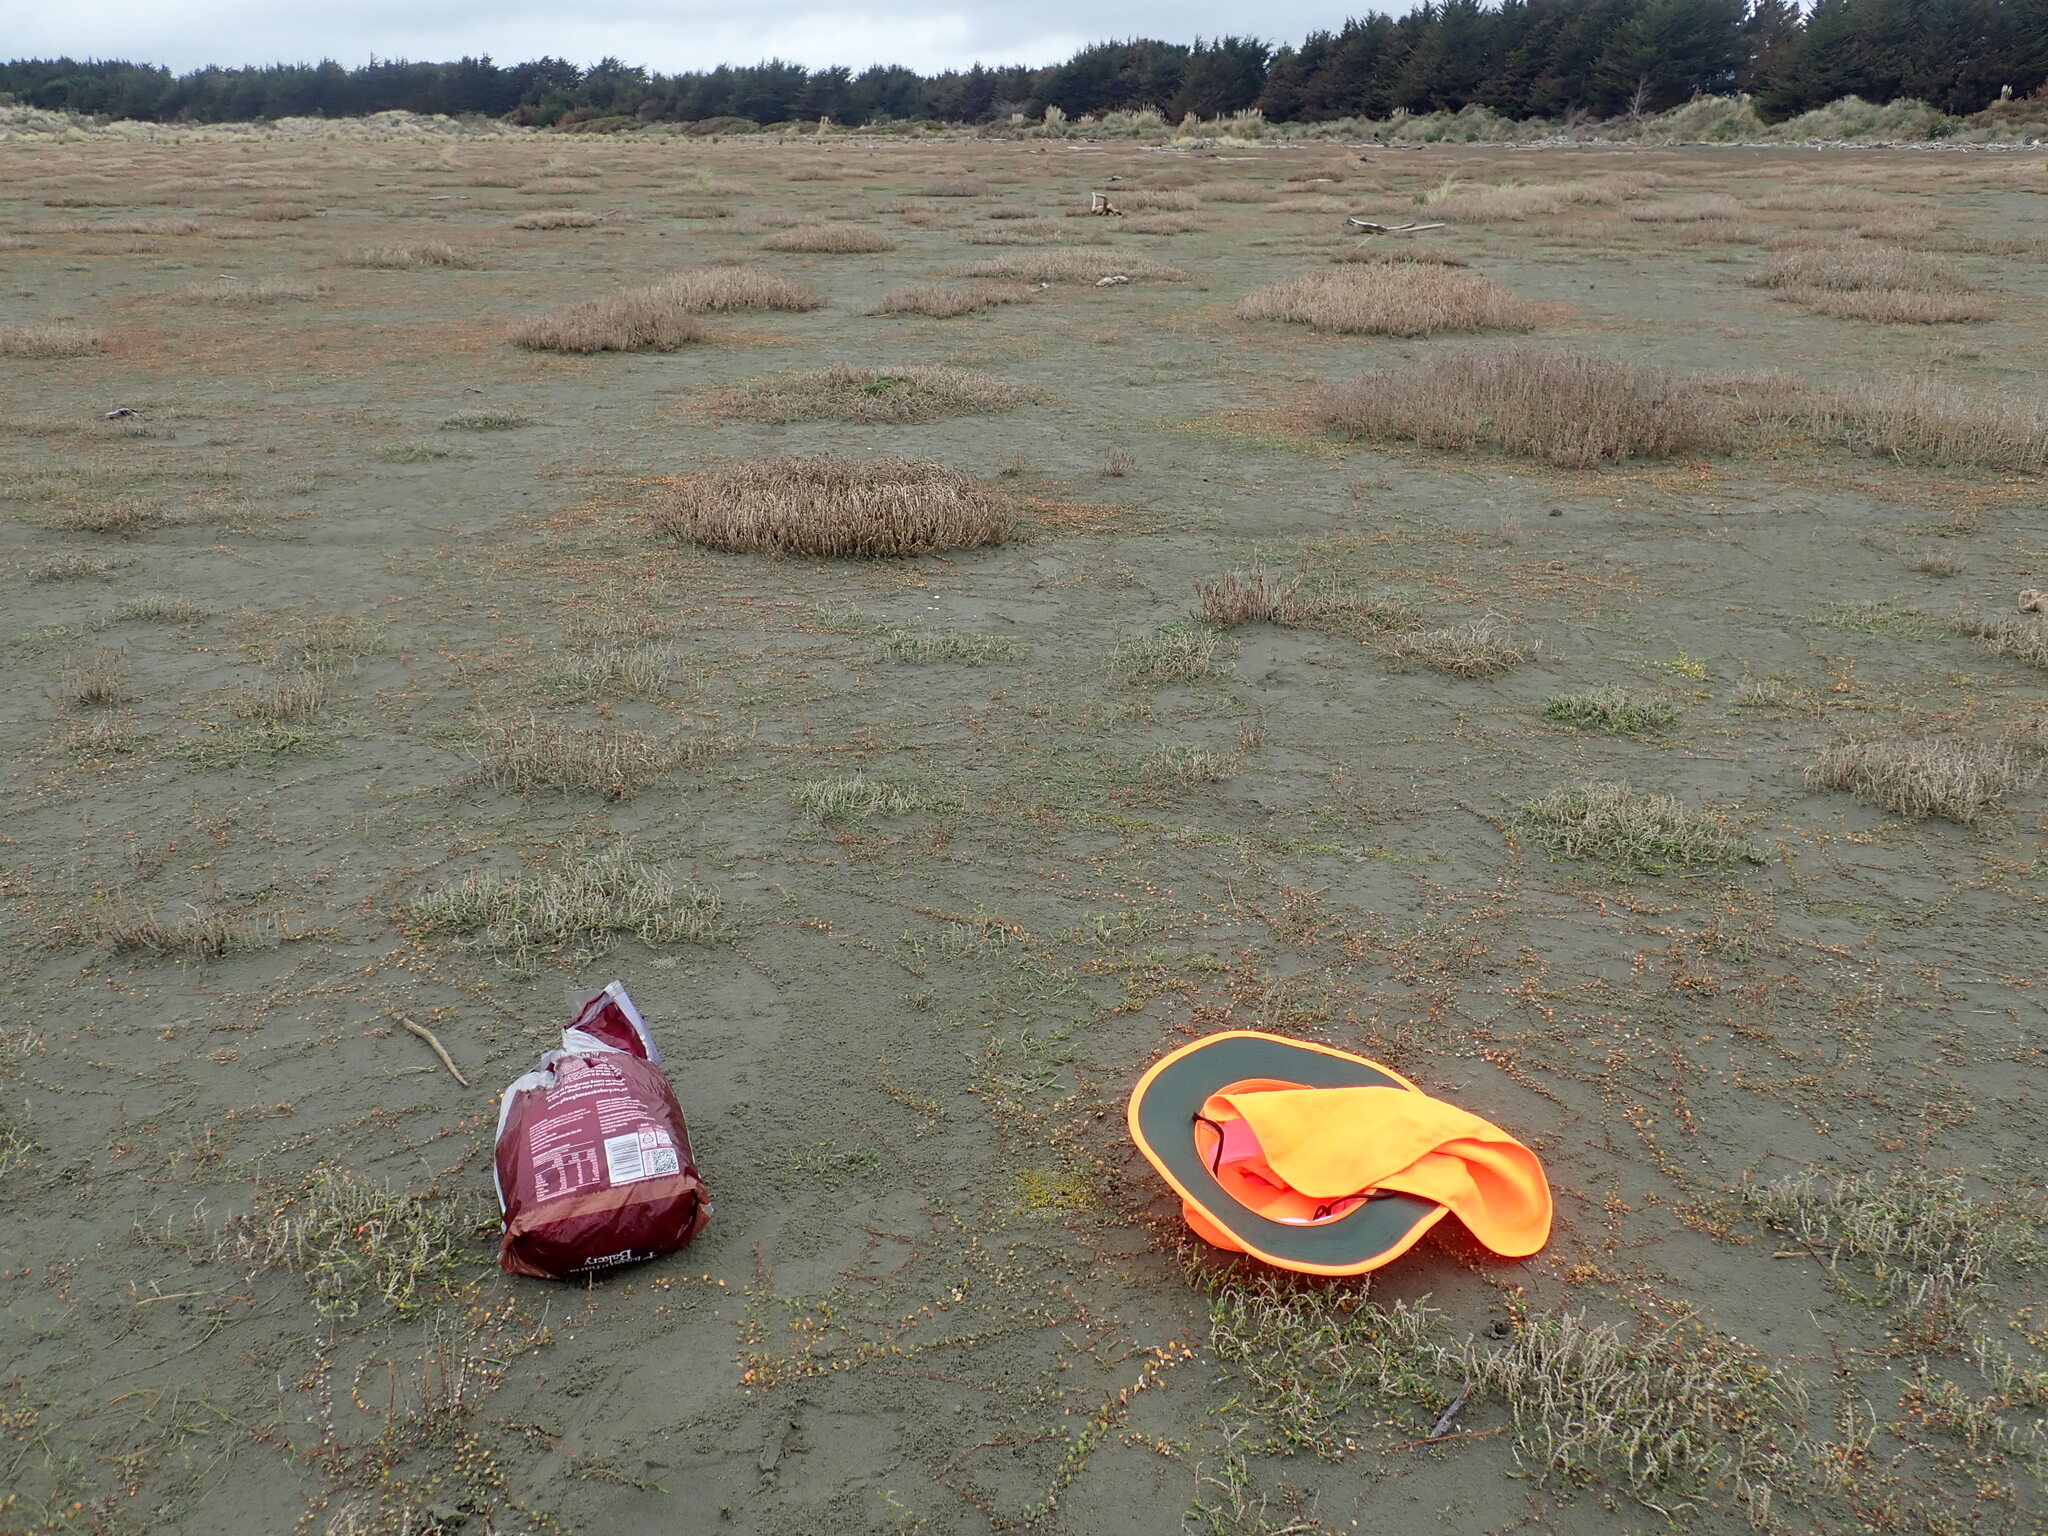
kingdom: Plantae
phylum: Tracheophyta
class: Magnoliopsida
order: Caryophyllales
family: Amaranthaceae
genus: Salicornia
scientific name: Salicornia quinqueflora
